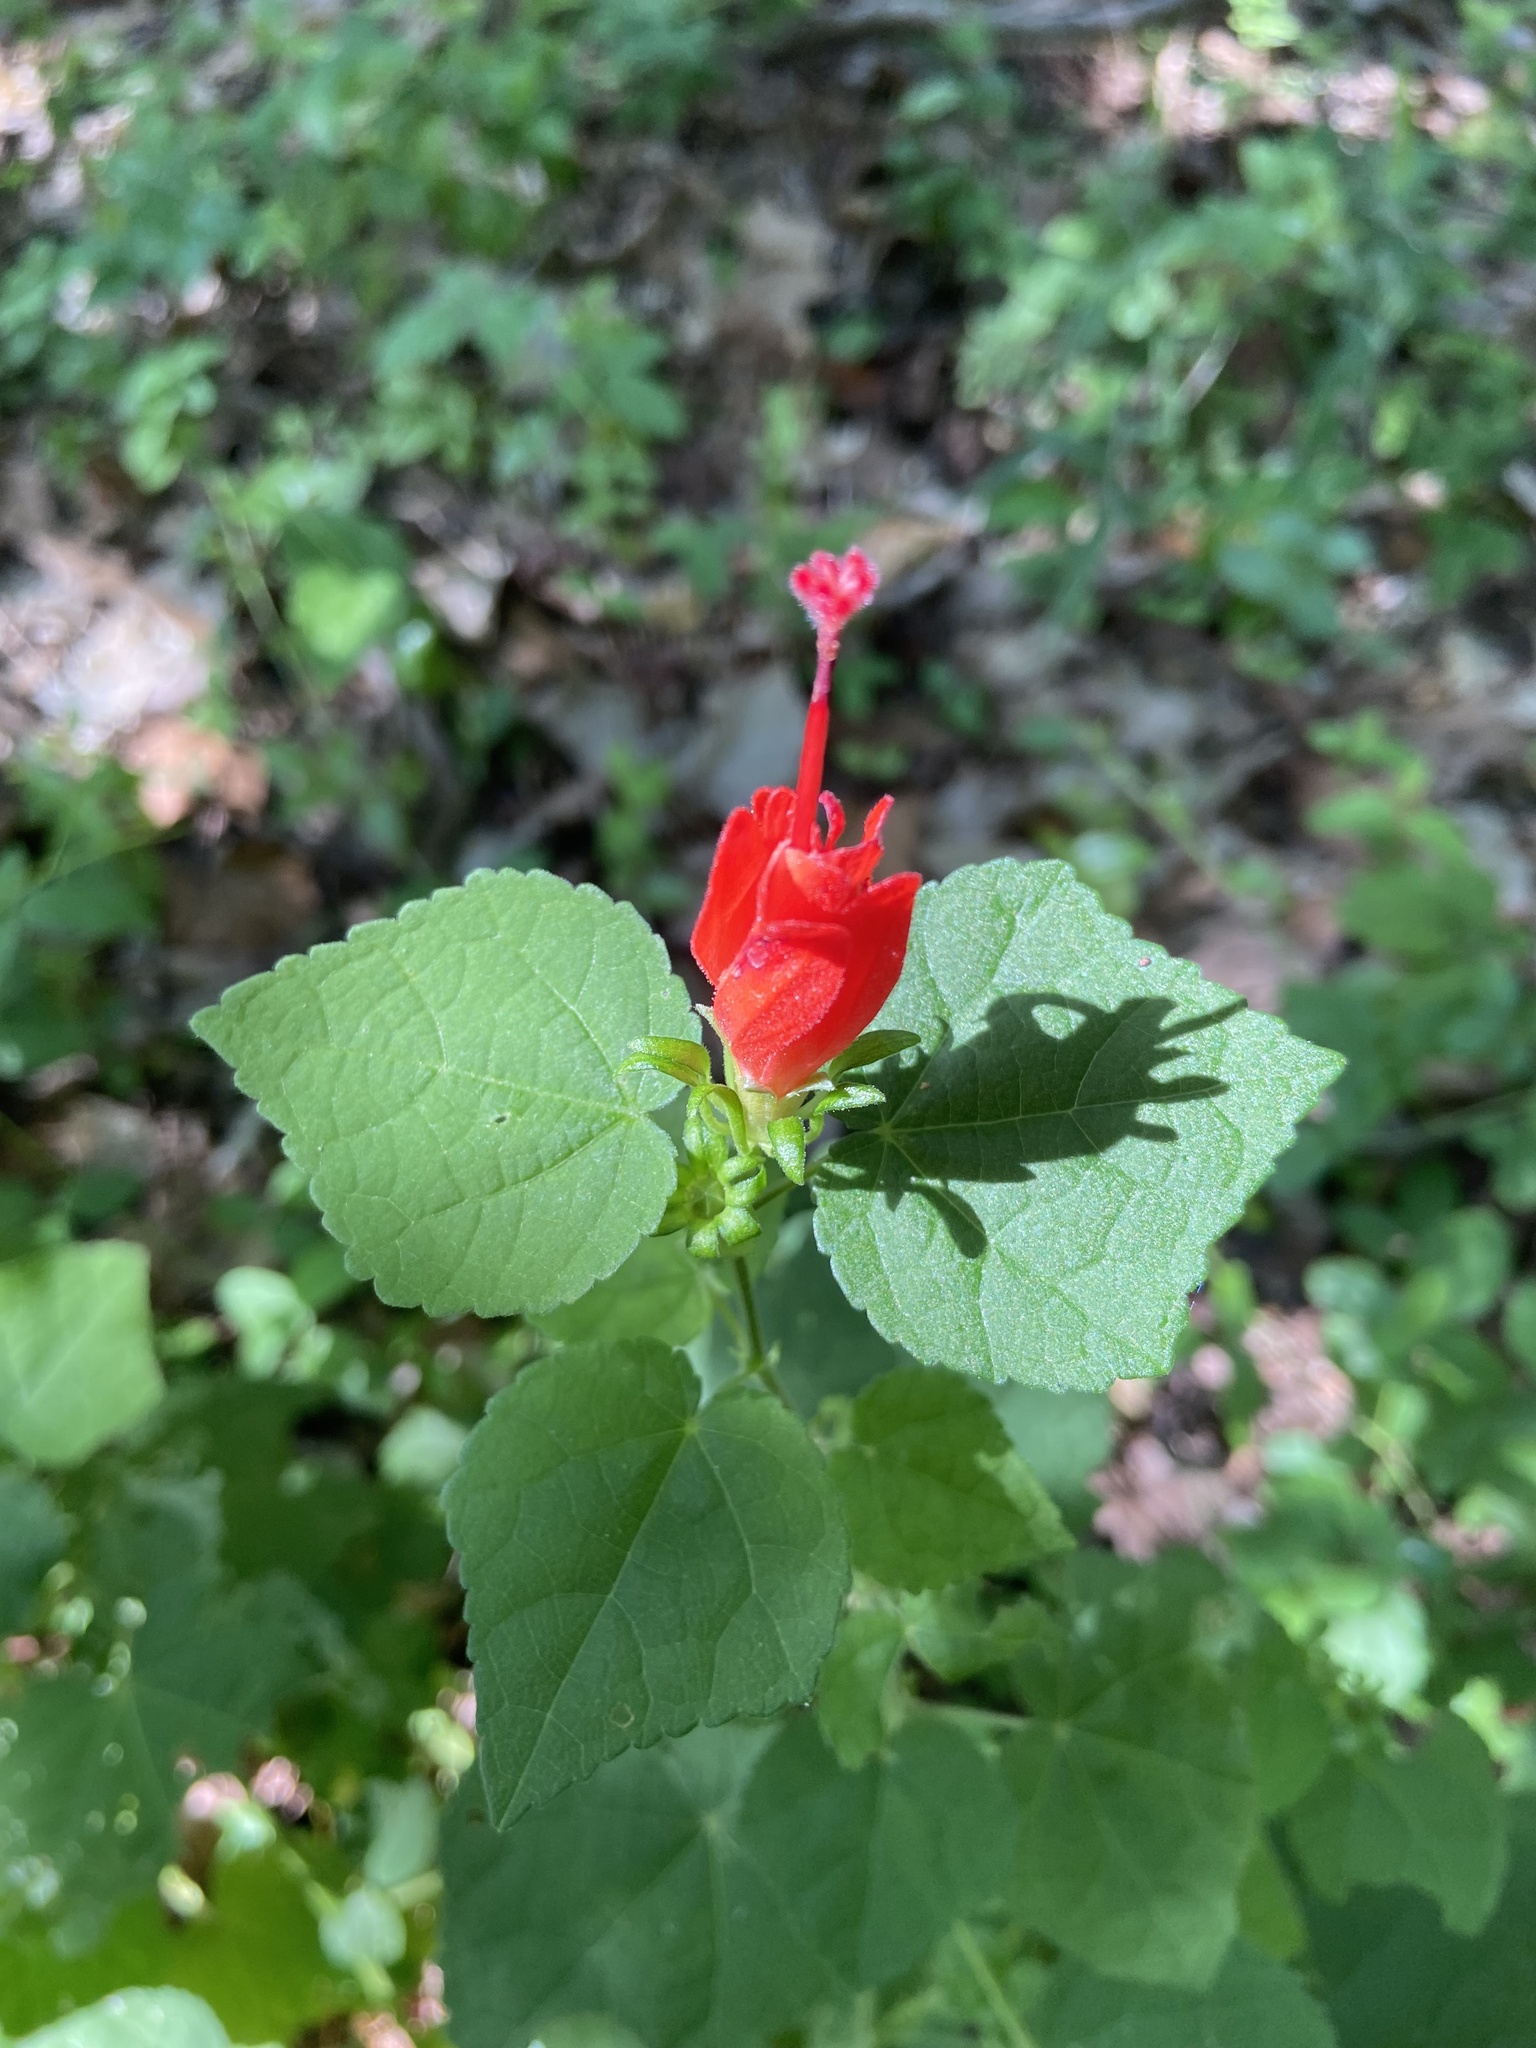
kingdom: Plantae
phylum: Tracheophyta
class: Magnoliopsida
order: Malvales
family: Malvaceae
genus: Malvaviscus
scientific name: Malvaviscus arboreus
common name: Wax mallow
